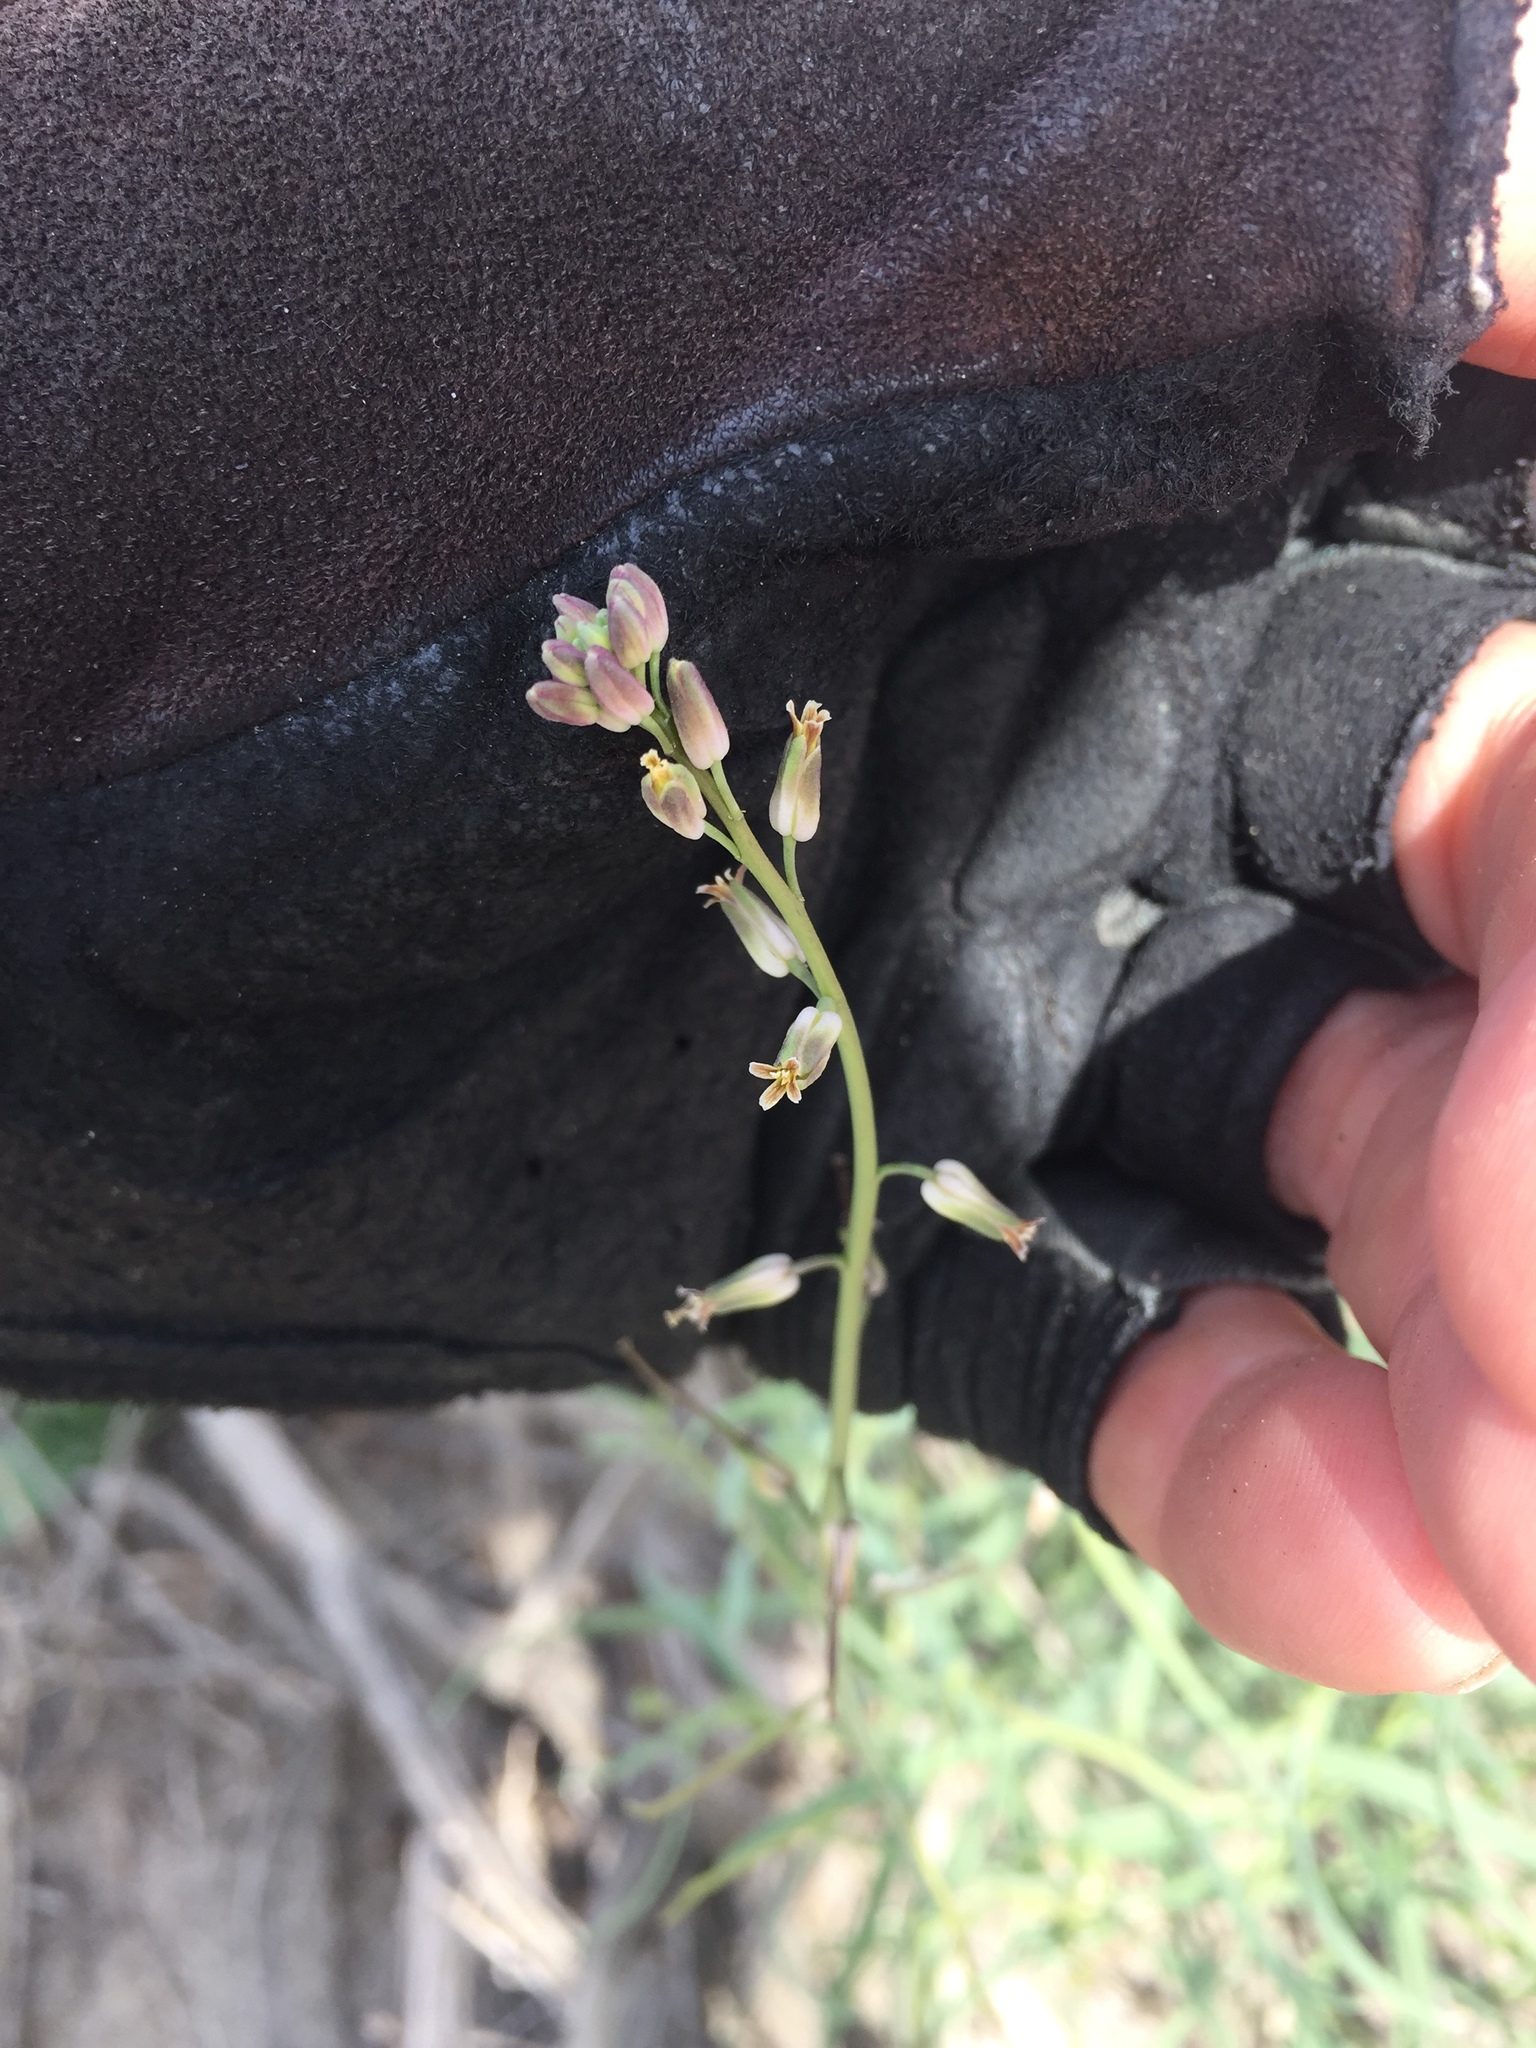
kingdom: Plantae
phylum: Tracheophyta
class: Magnoliopsida
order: Brassicales
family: Brassicaceae
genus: Streptanthus
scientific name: Streptanthus longirostris
